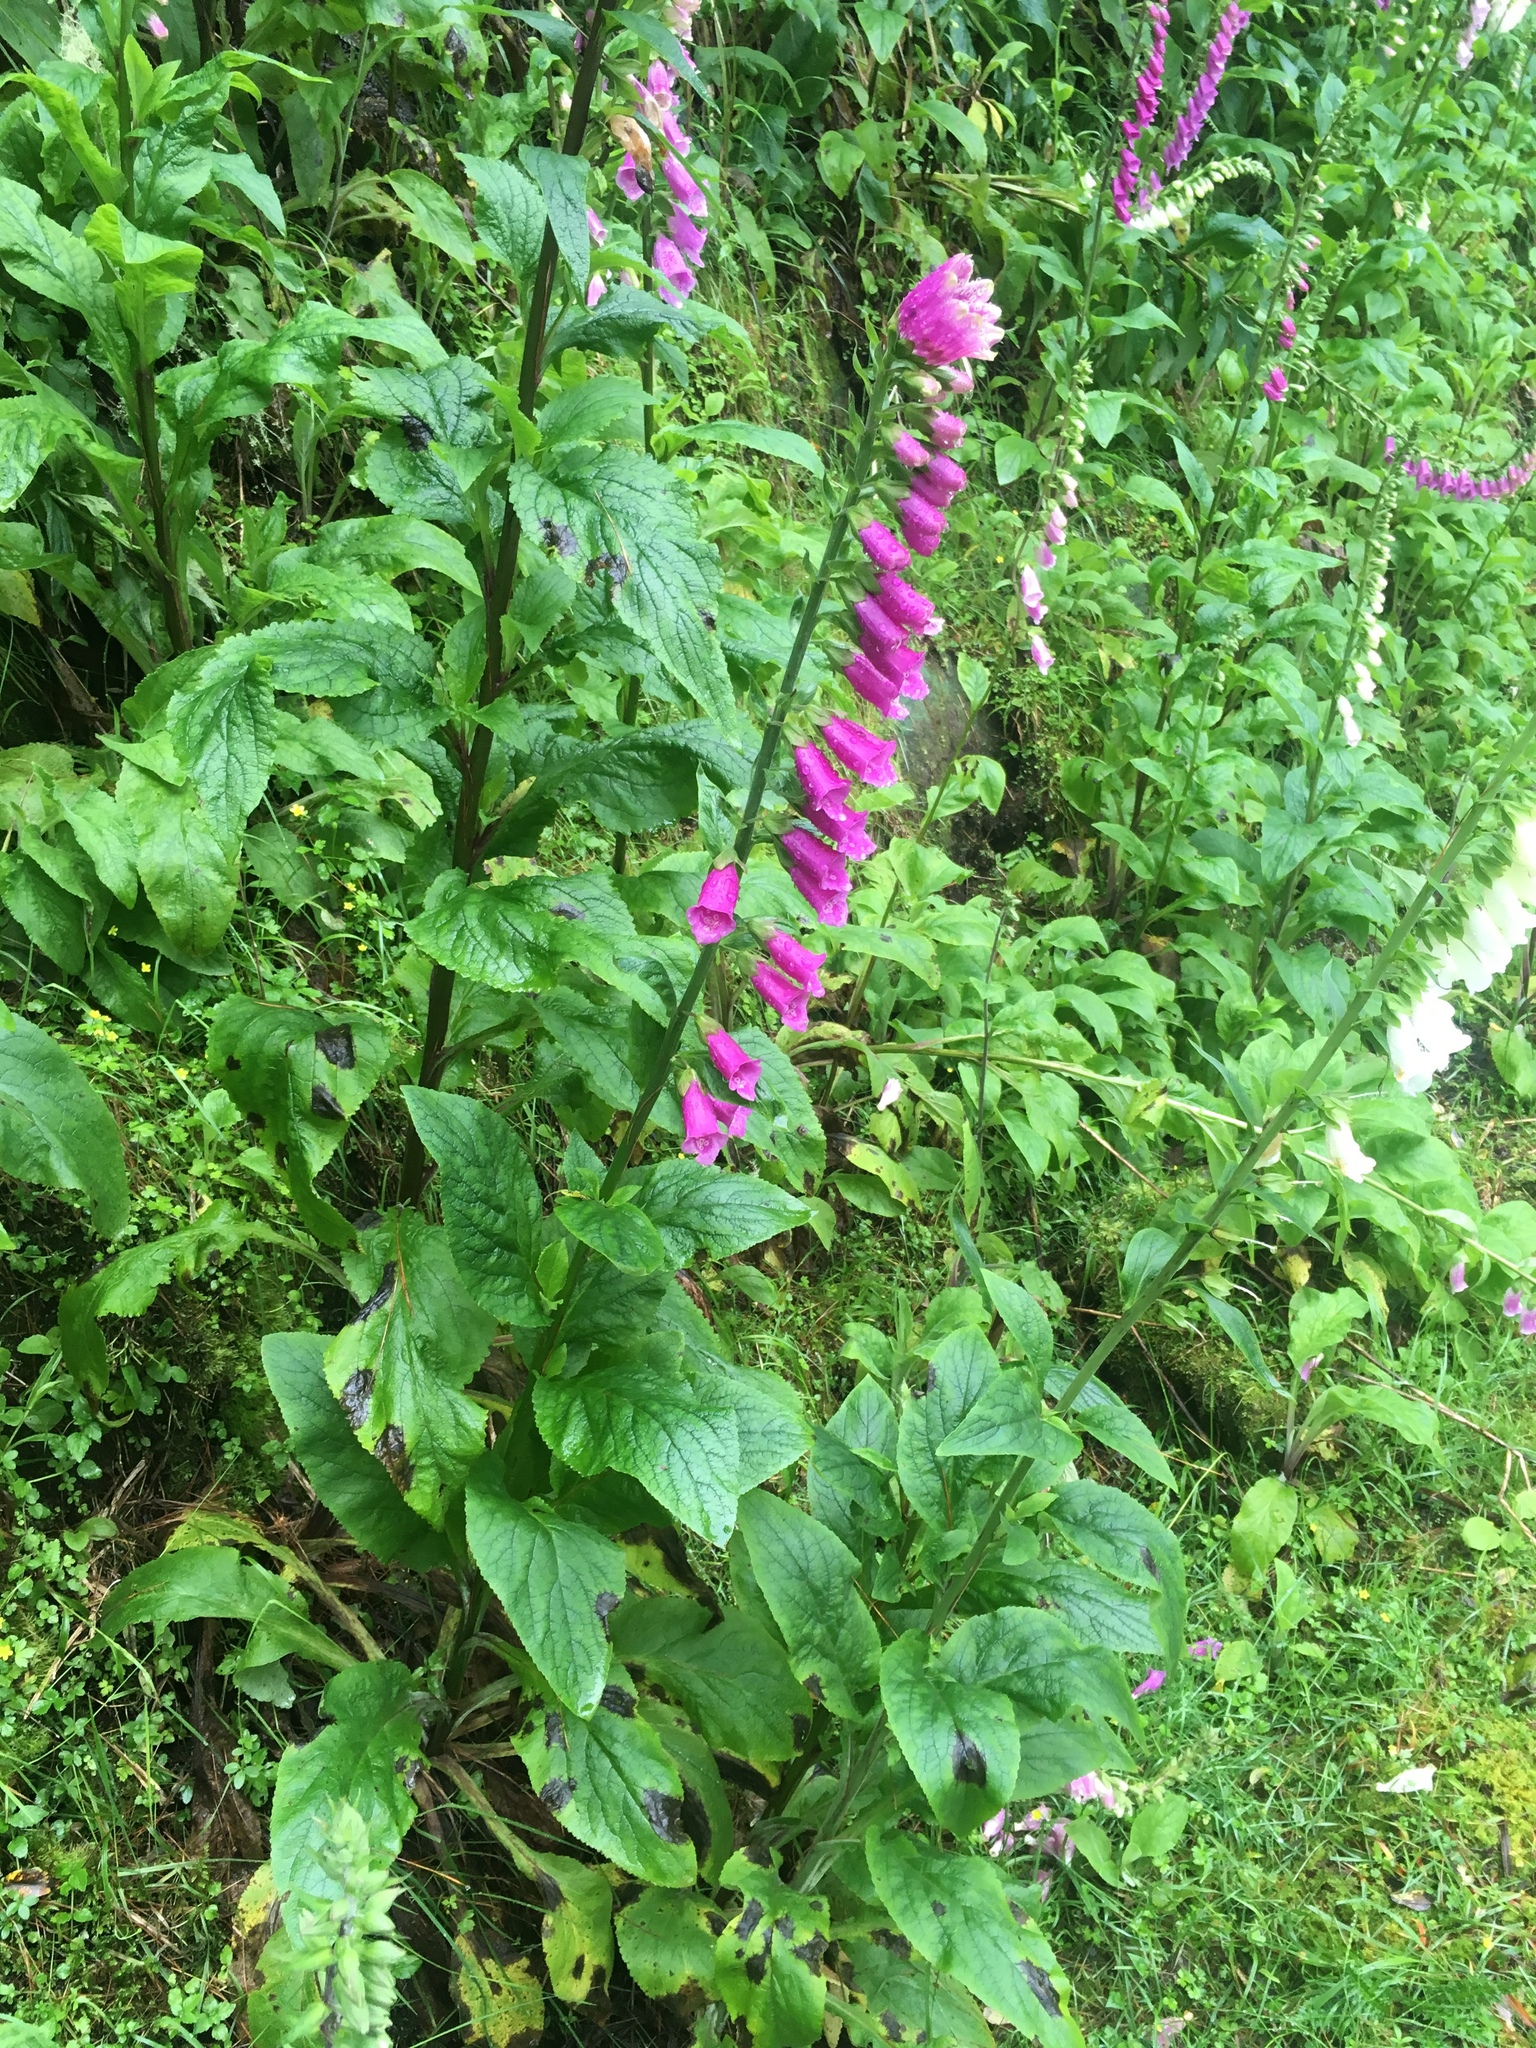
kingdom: Plantae
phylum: Tracheophyta
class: Magnoliopsida
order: Lamiales
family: Plantaginaceae
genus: Digitalis
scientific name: Digitalis purpurea
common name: Foxglove
